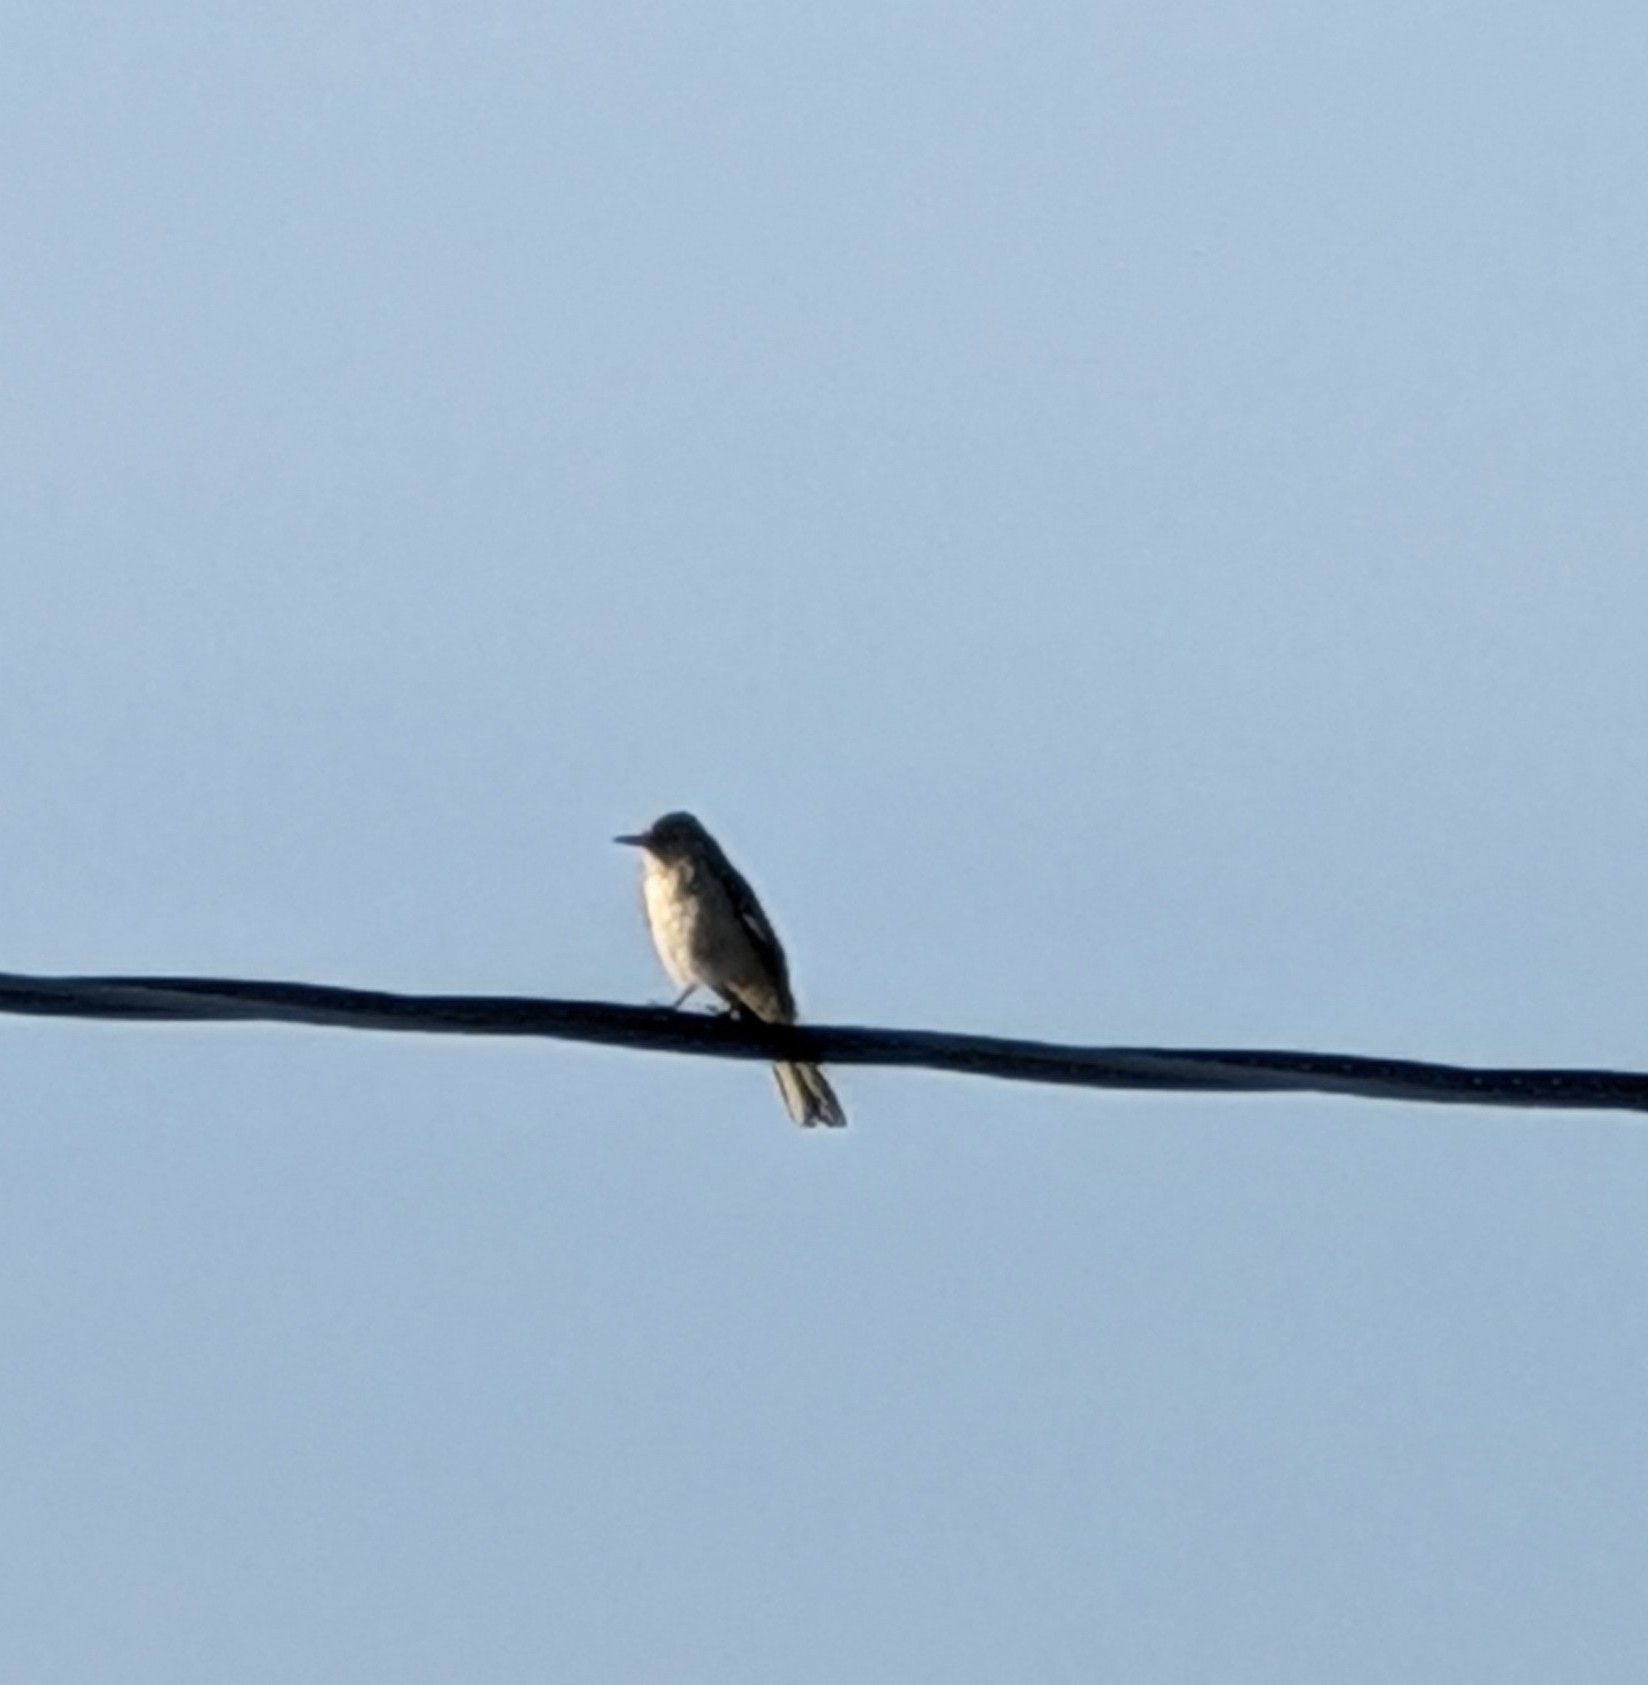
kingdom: Animalia
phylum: Chordata
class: Aves
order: Passeriformes
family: Mimidae
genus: Mimus
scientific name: Mimus polyglottos
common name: Northern mockingbird
